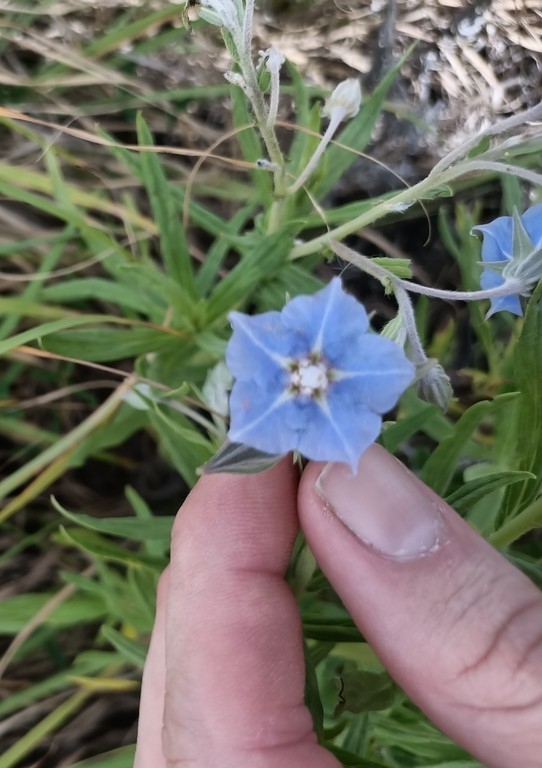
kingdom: Plantae
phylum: Tracheophyta
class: Magnoliopsida
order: Boraginales
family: Boraginaceae
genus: Trichodesma
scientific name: Trichodesma zeylanicum
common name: Camelbush
